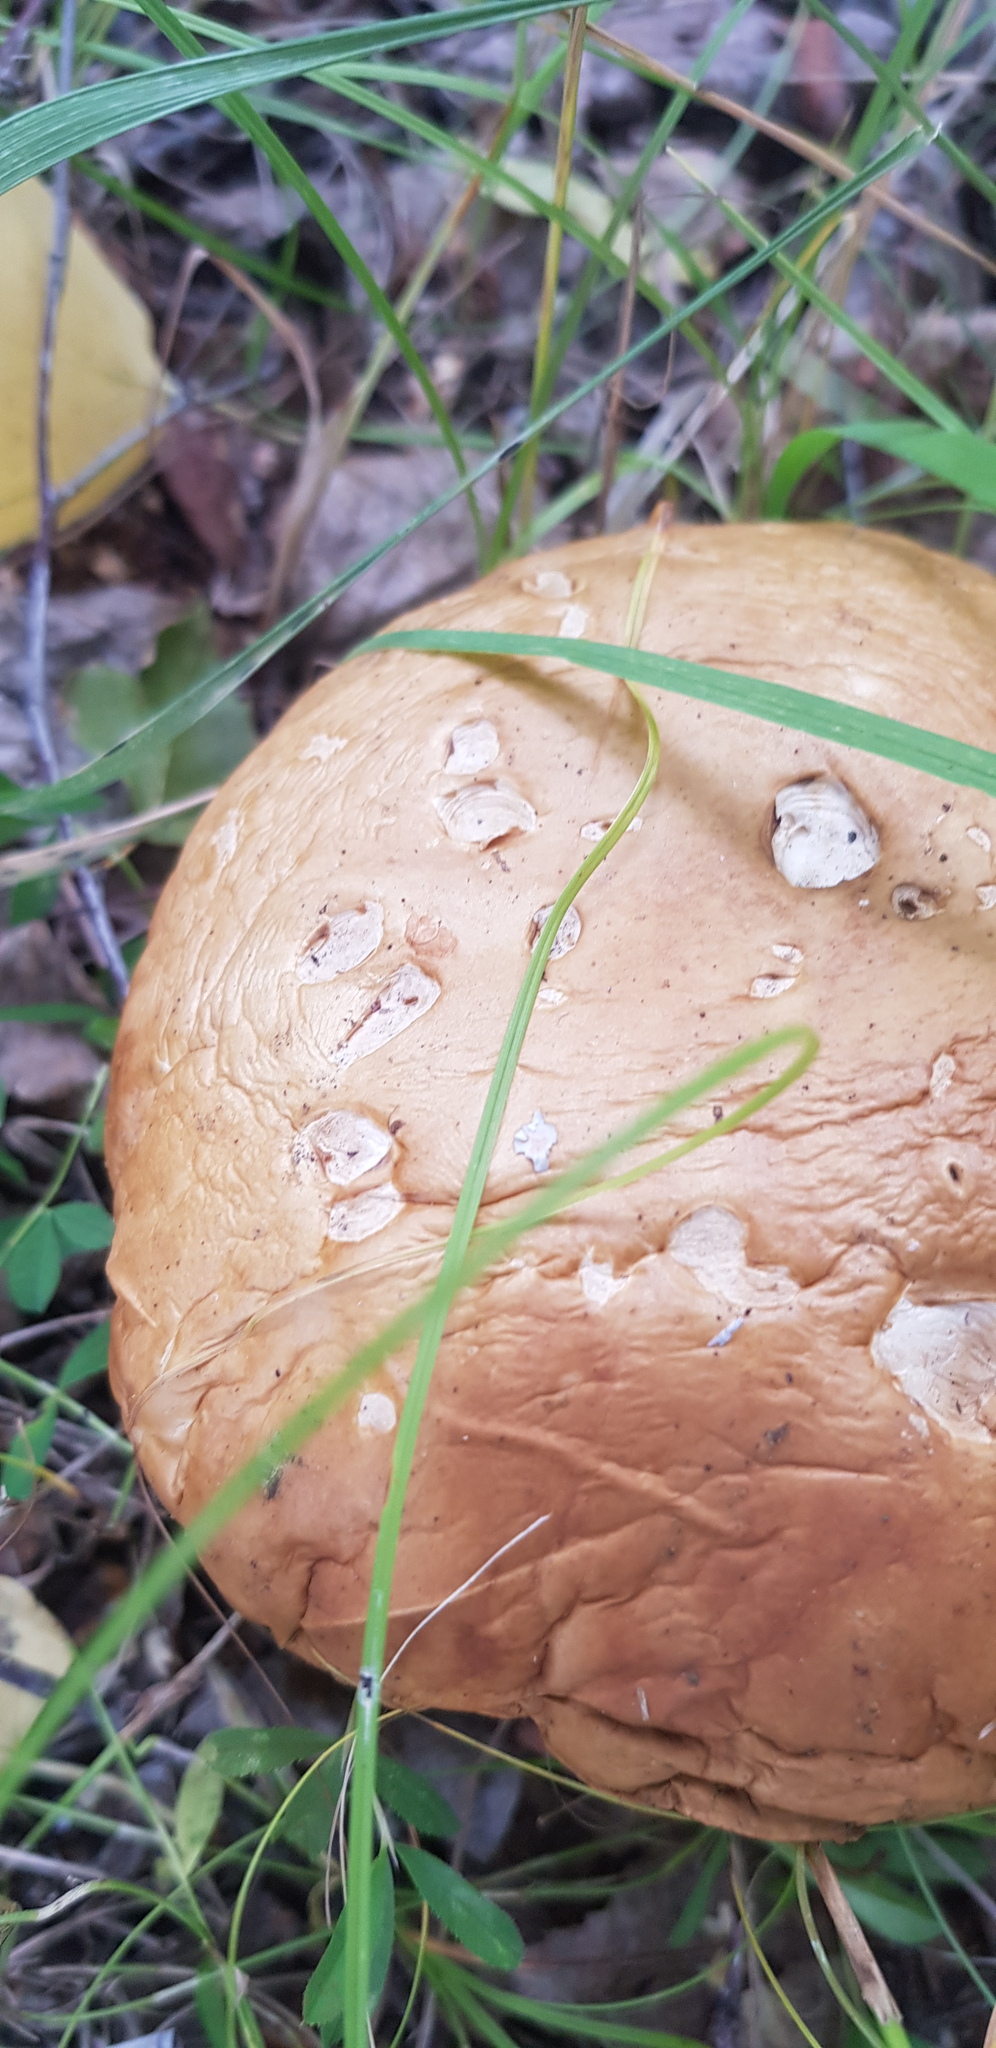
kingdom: Fungi
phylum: Basidiomycota
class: Agaricomycetes
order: Boletales
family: Boletaceae
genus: Leccinum
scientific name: Leccinum scabrum
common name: Blushing bolete
